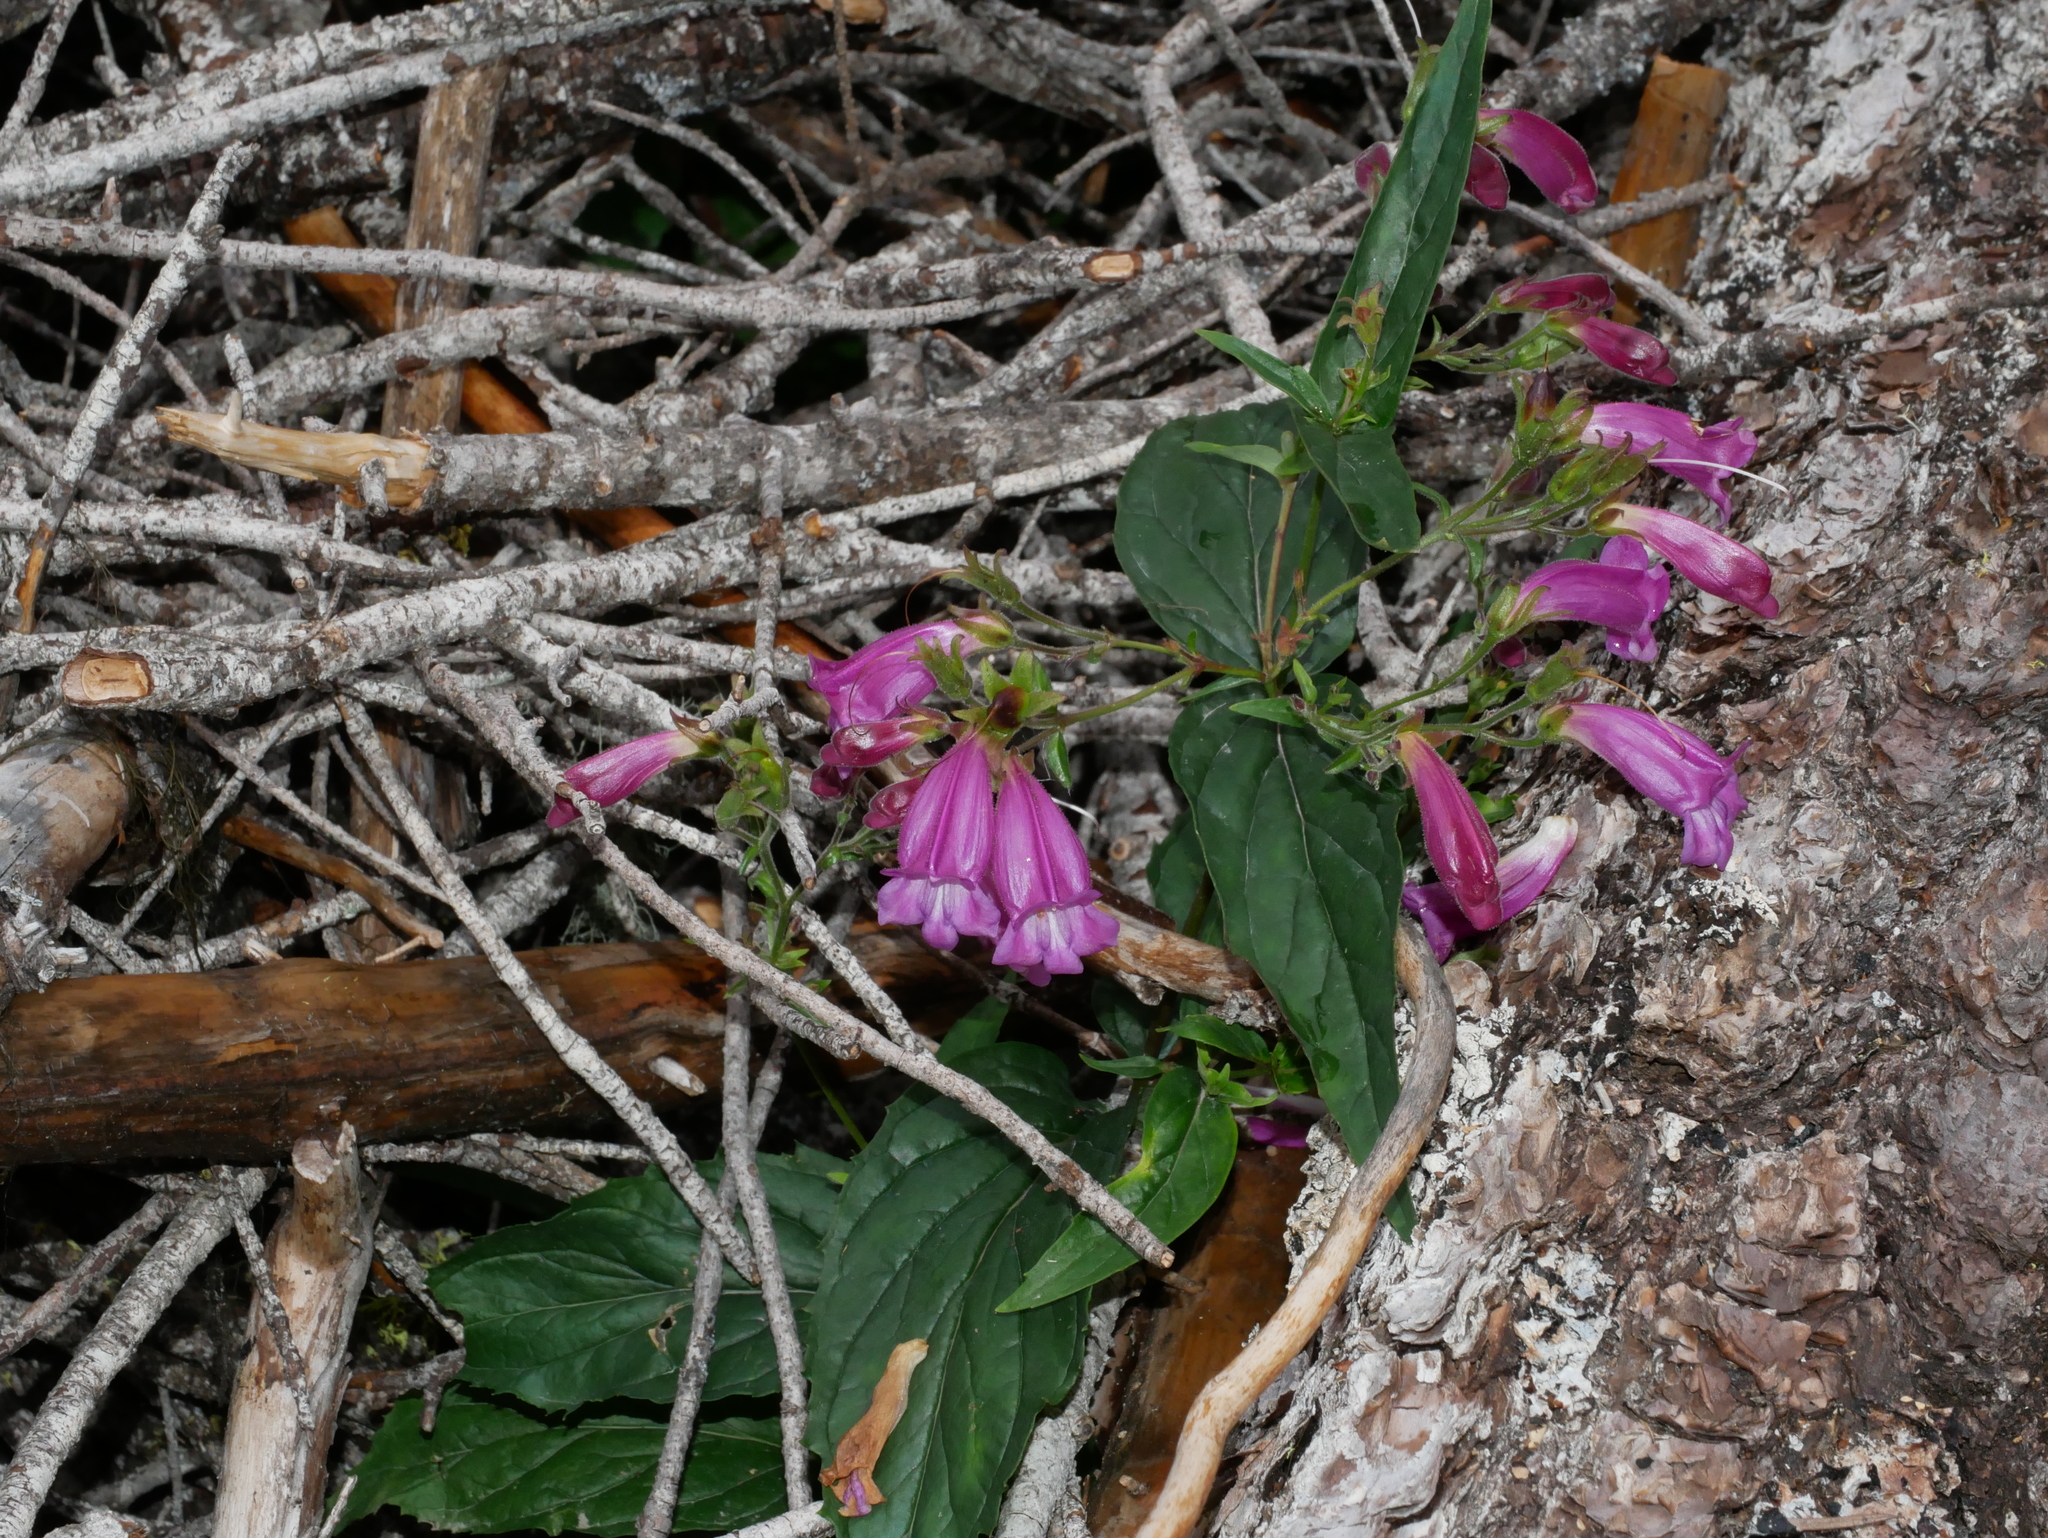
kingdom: Plantae
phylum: Tracheophyta
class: Magnoliopsida
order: Lamiales
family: Plantaginaceae
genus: Nothochelone
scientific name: Nothochelone nemorosa
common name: Woodland beardtongue
